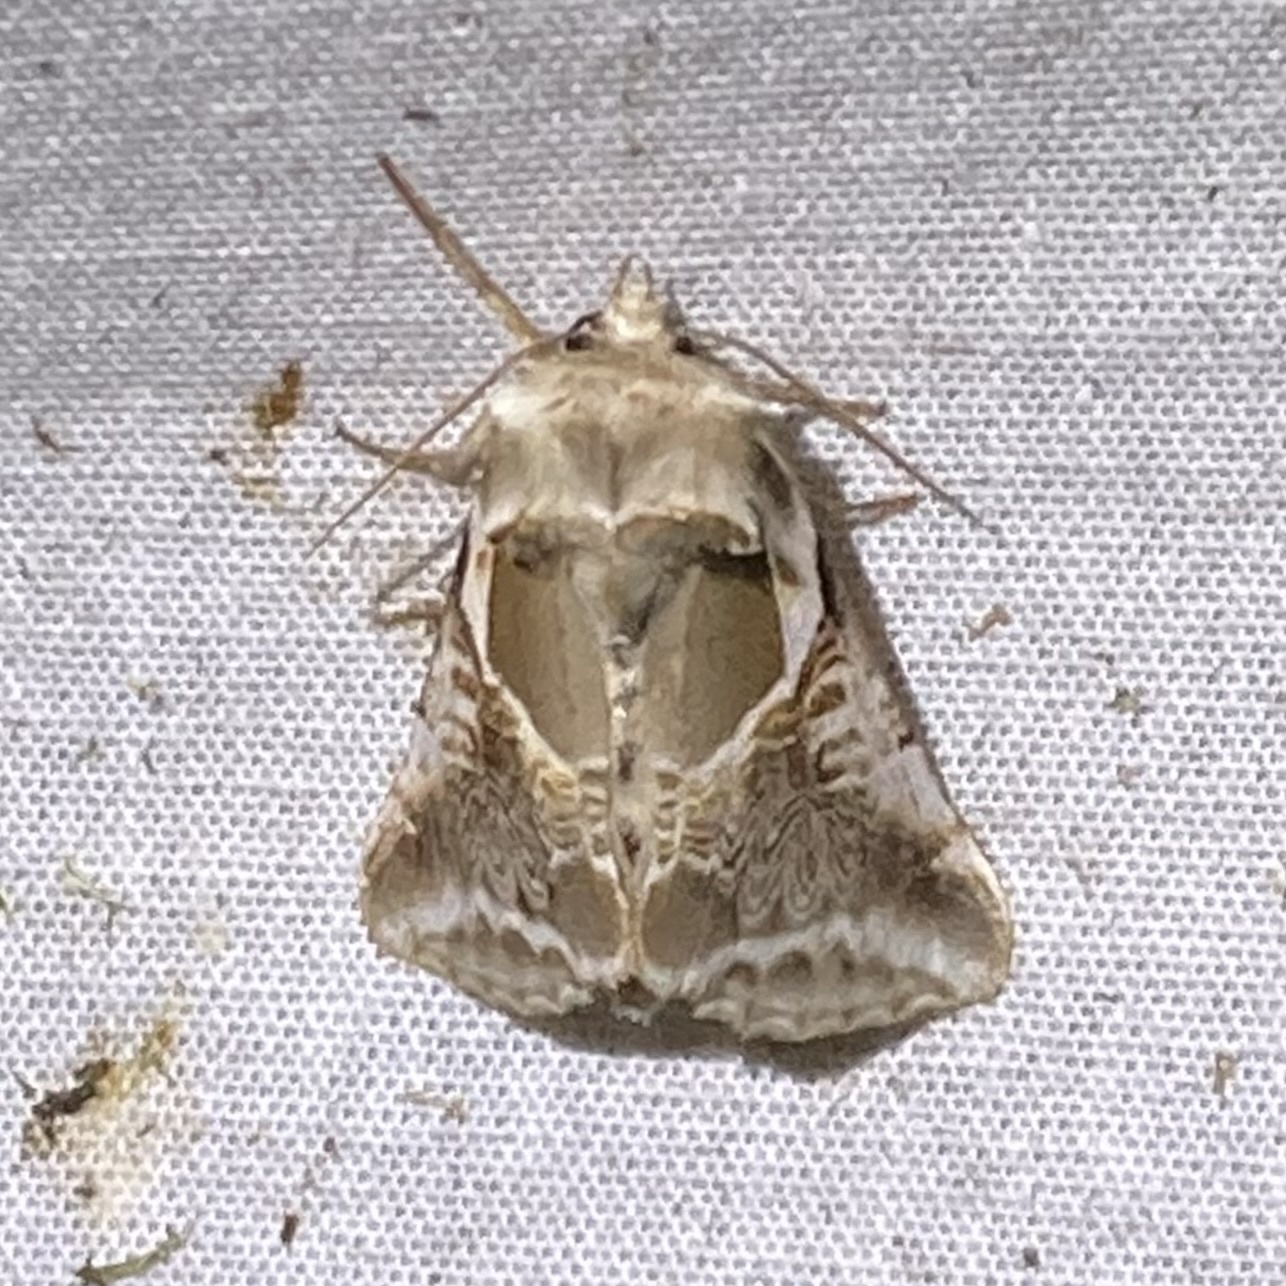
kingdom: Animalia
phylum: Arthropoda
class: Insecta
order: Lepidoptera
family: Drepanidae
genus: Habrosyne
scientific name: Habrosyne scripta
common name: Lettered habrosyne moth
